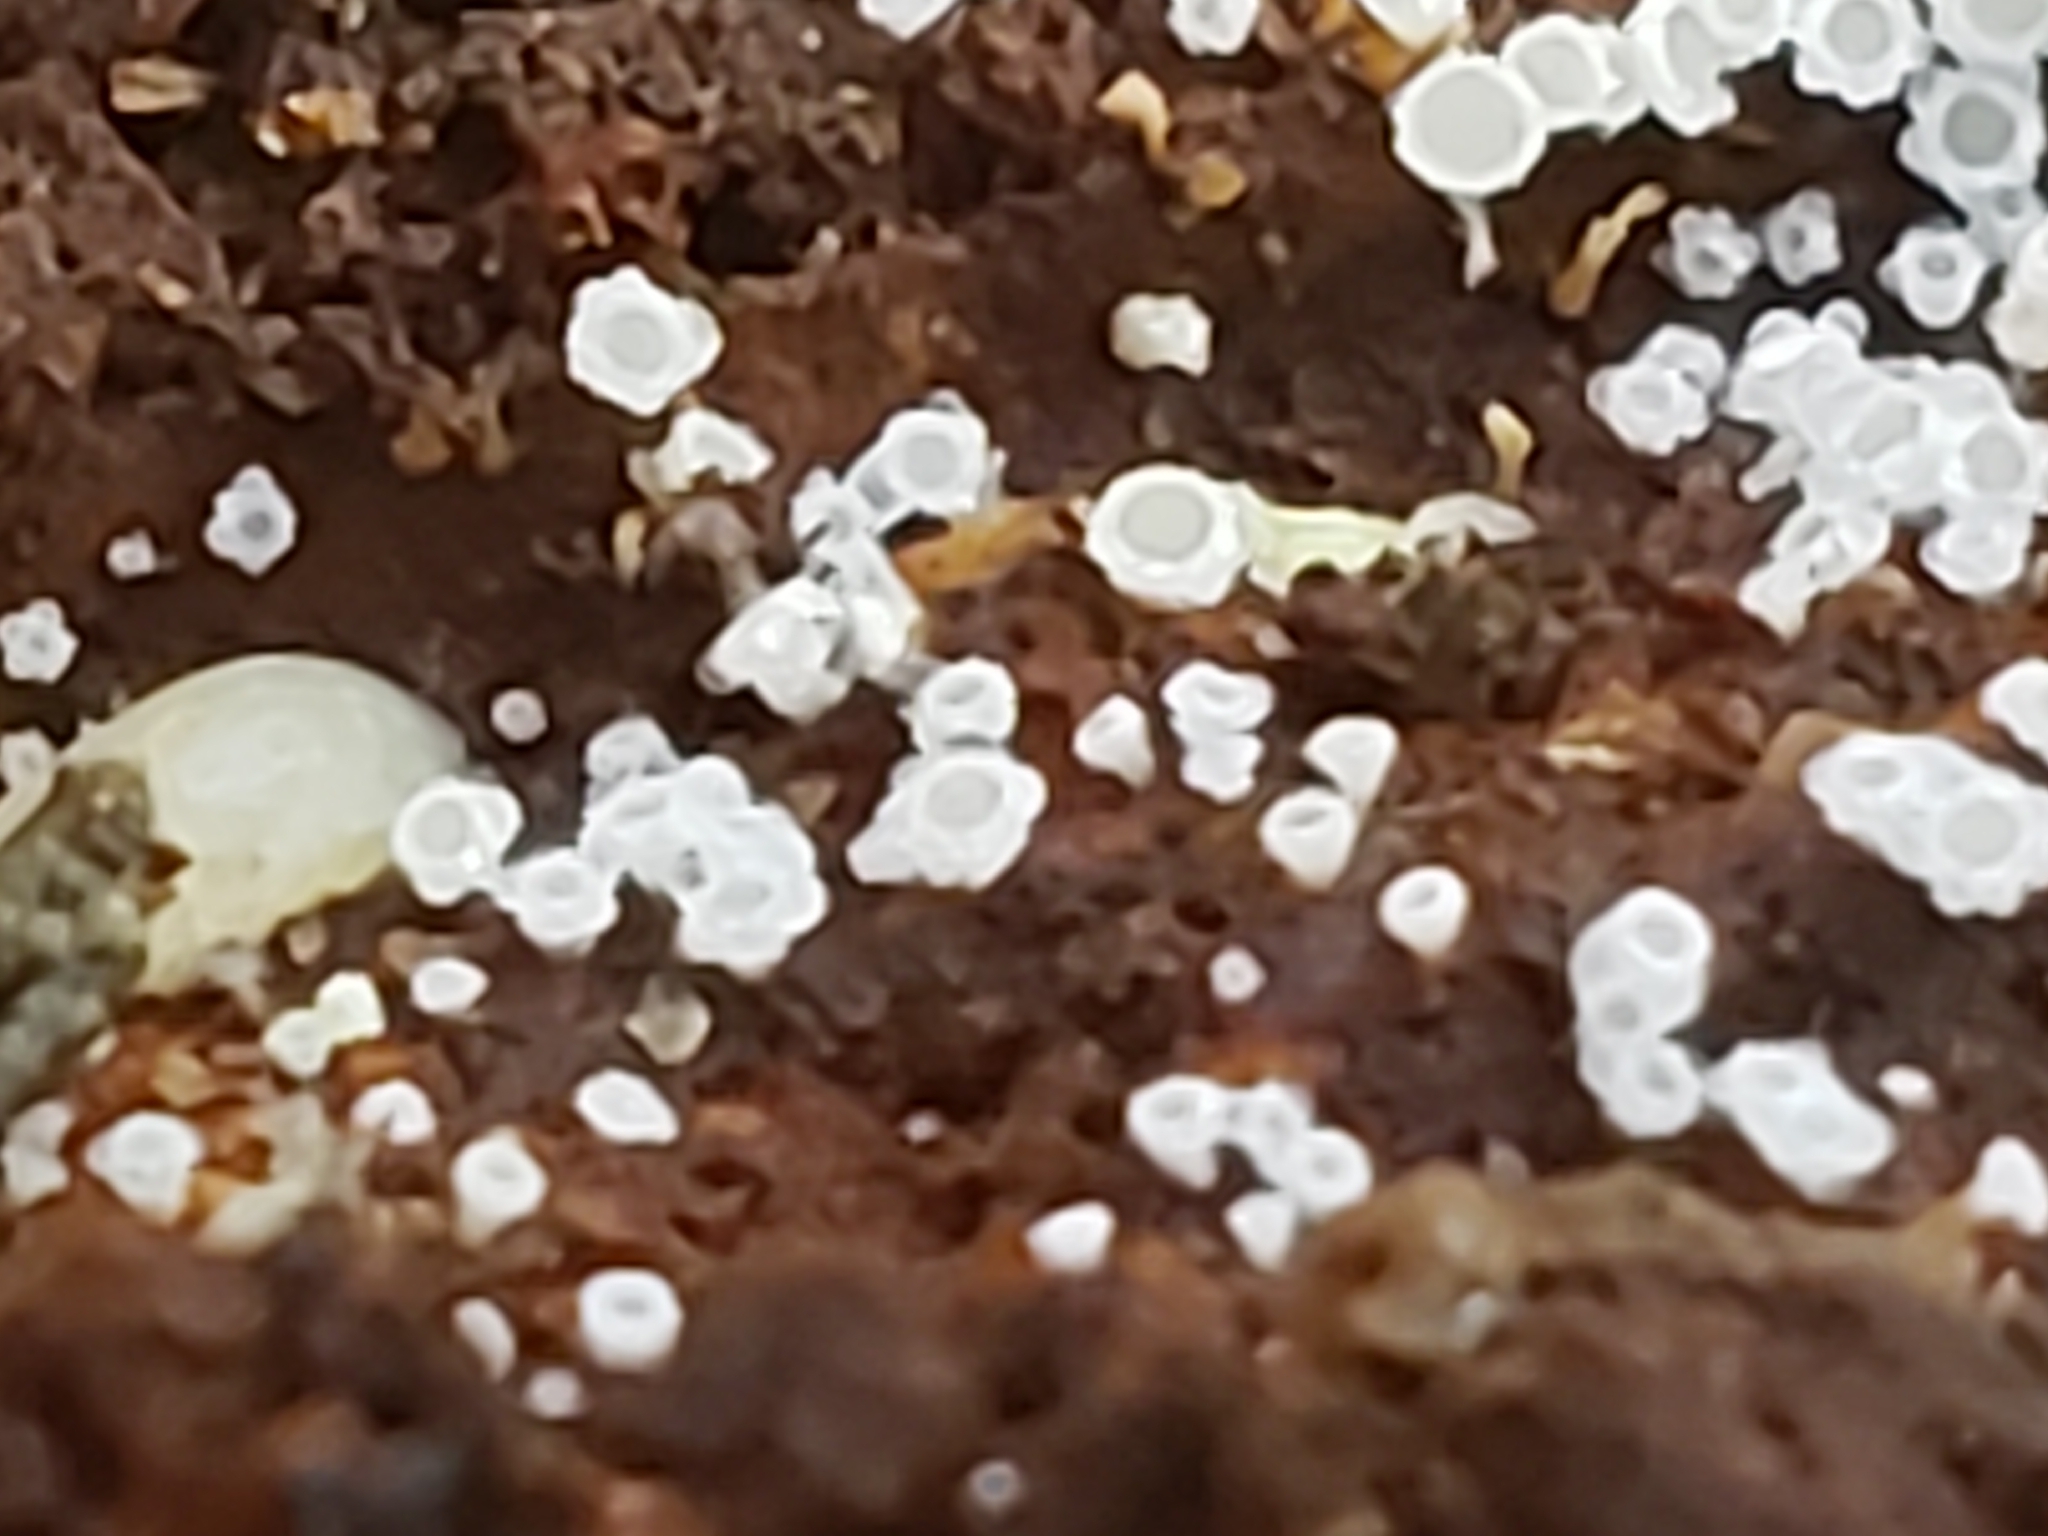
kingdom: Fungi
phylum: Ascomycota
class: Leotiomycetes
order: Helotiales
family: Lachnaceae
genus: Lachnum
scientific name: Lachnum virgineum
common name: Snowy disco
